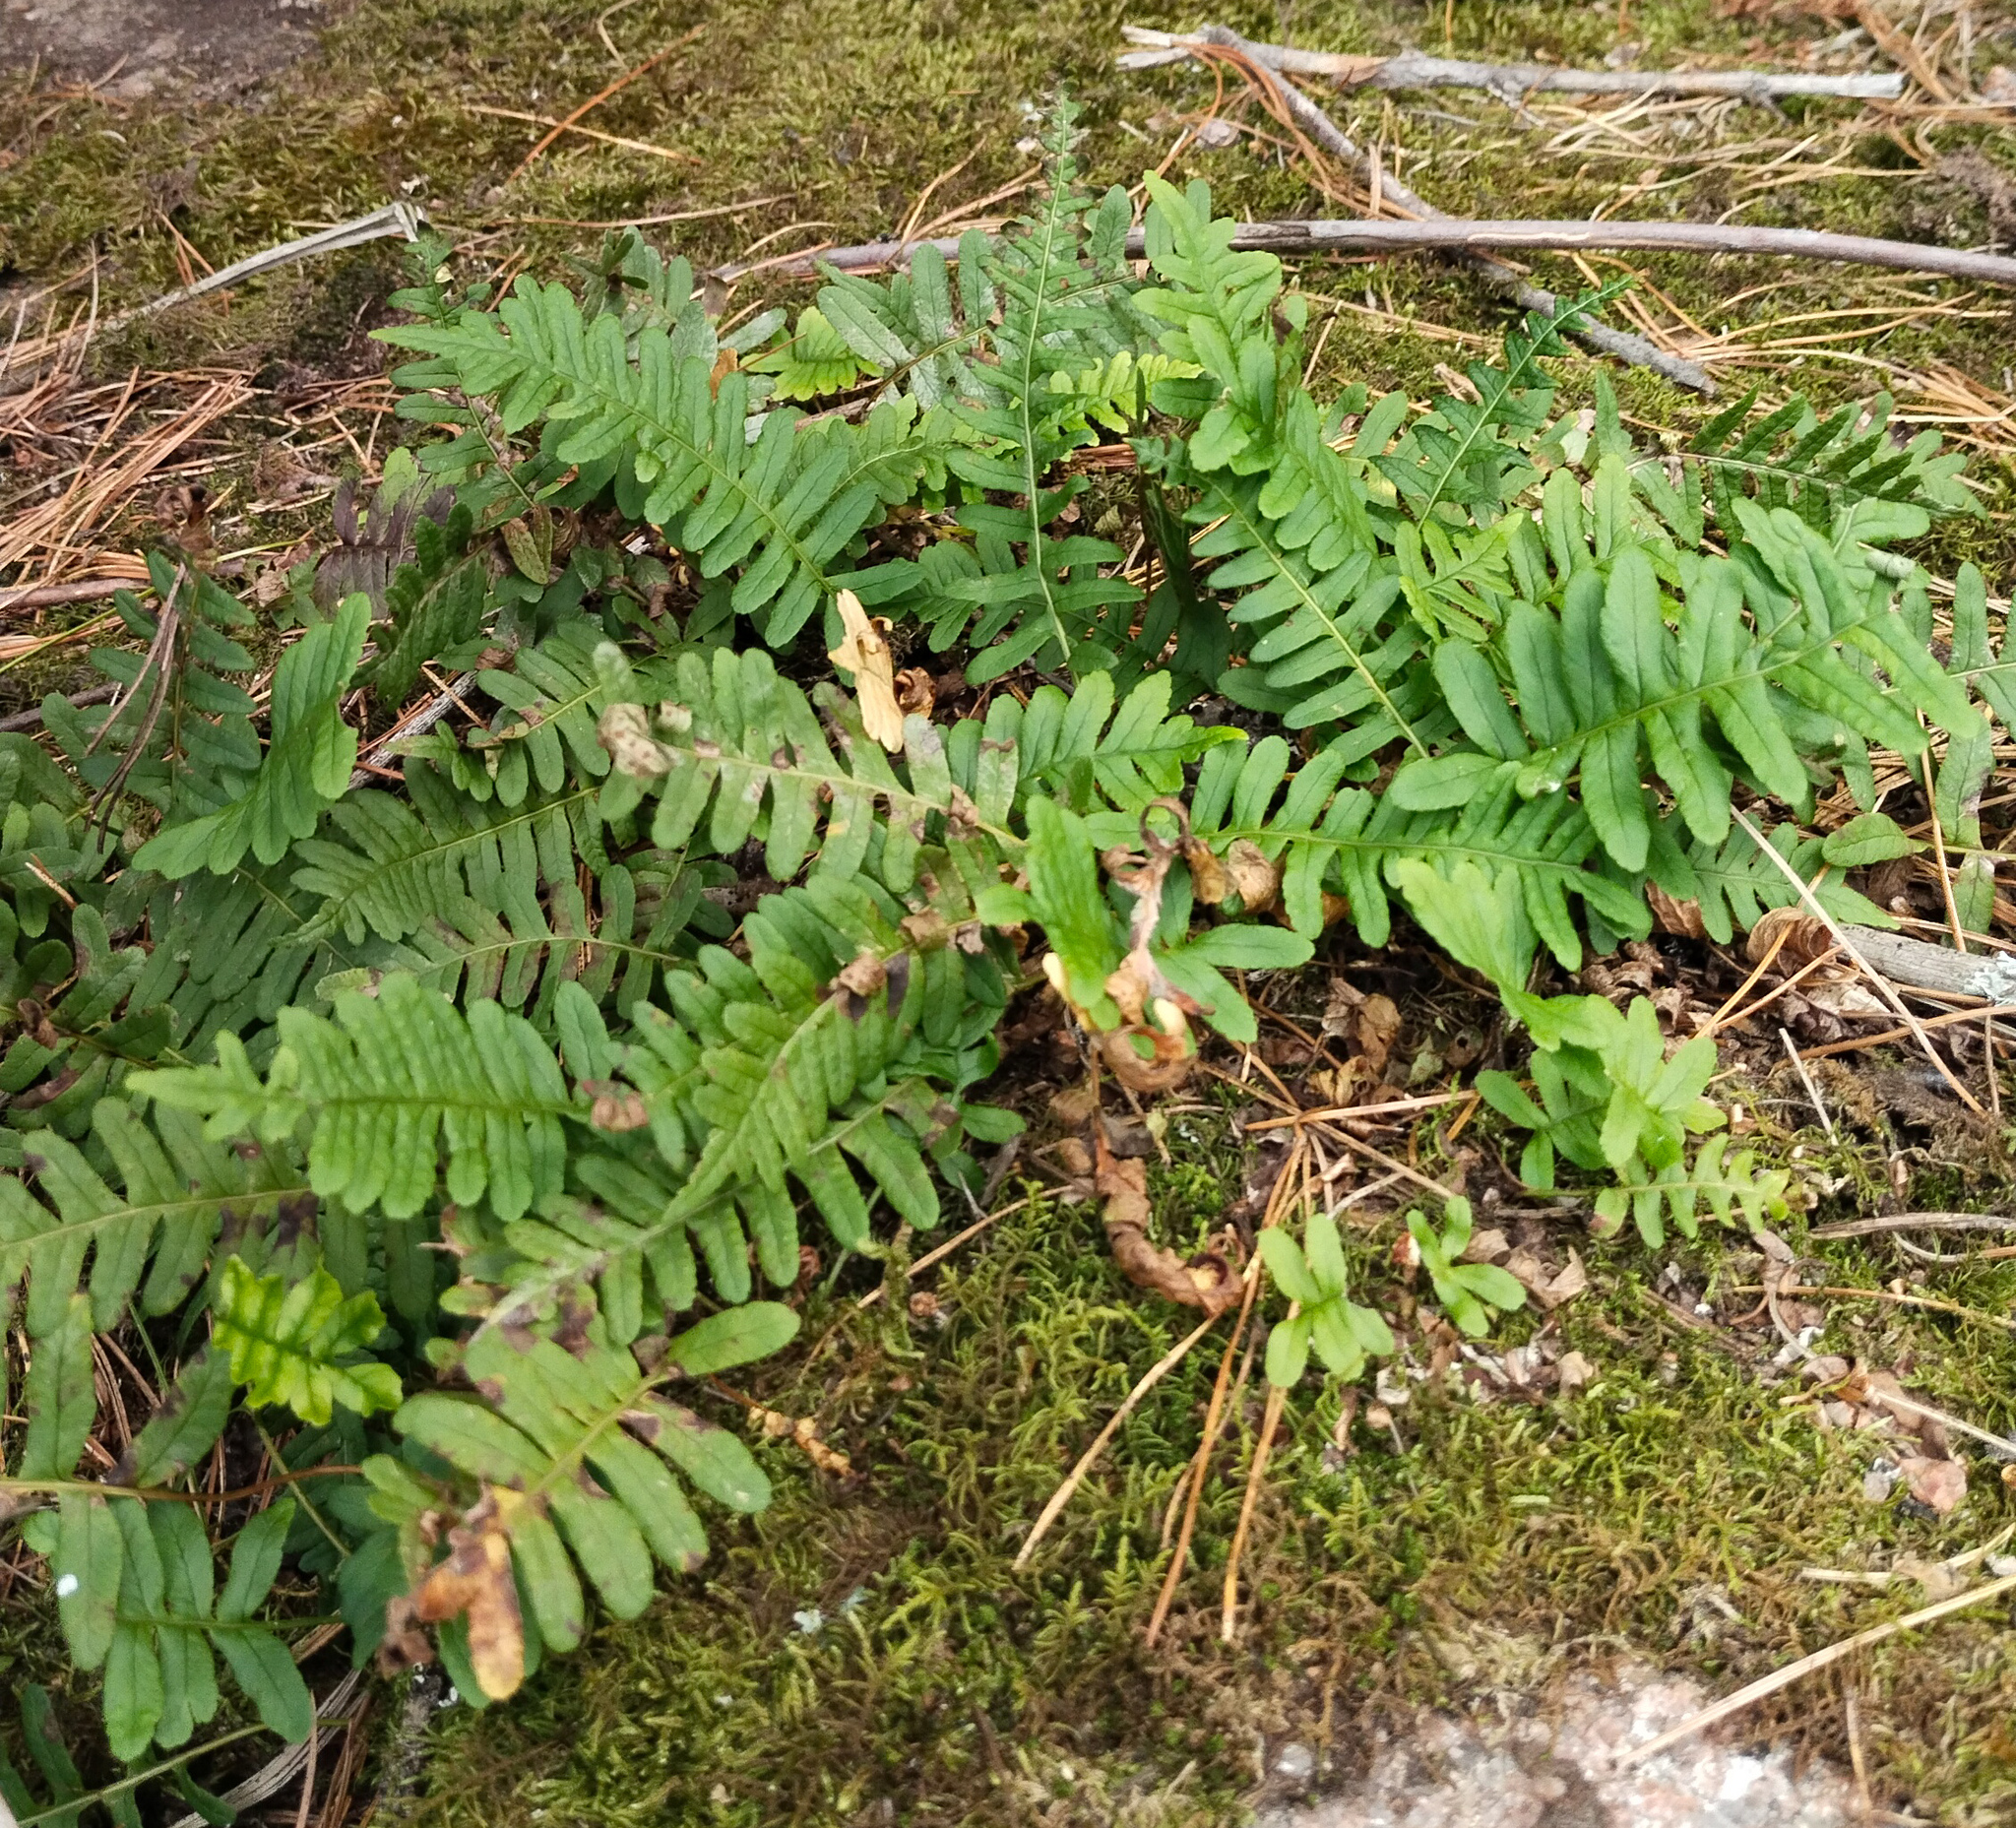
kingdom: Plantae
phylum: Tracheophyta
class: Polypodiopsida
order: Polypodiales
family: Polypodiaceae
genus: Polypodium
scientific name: Polypodium sibiricum
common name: Siberian polypody
